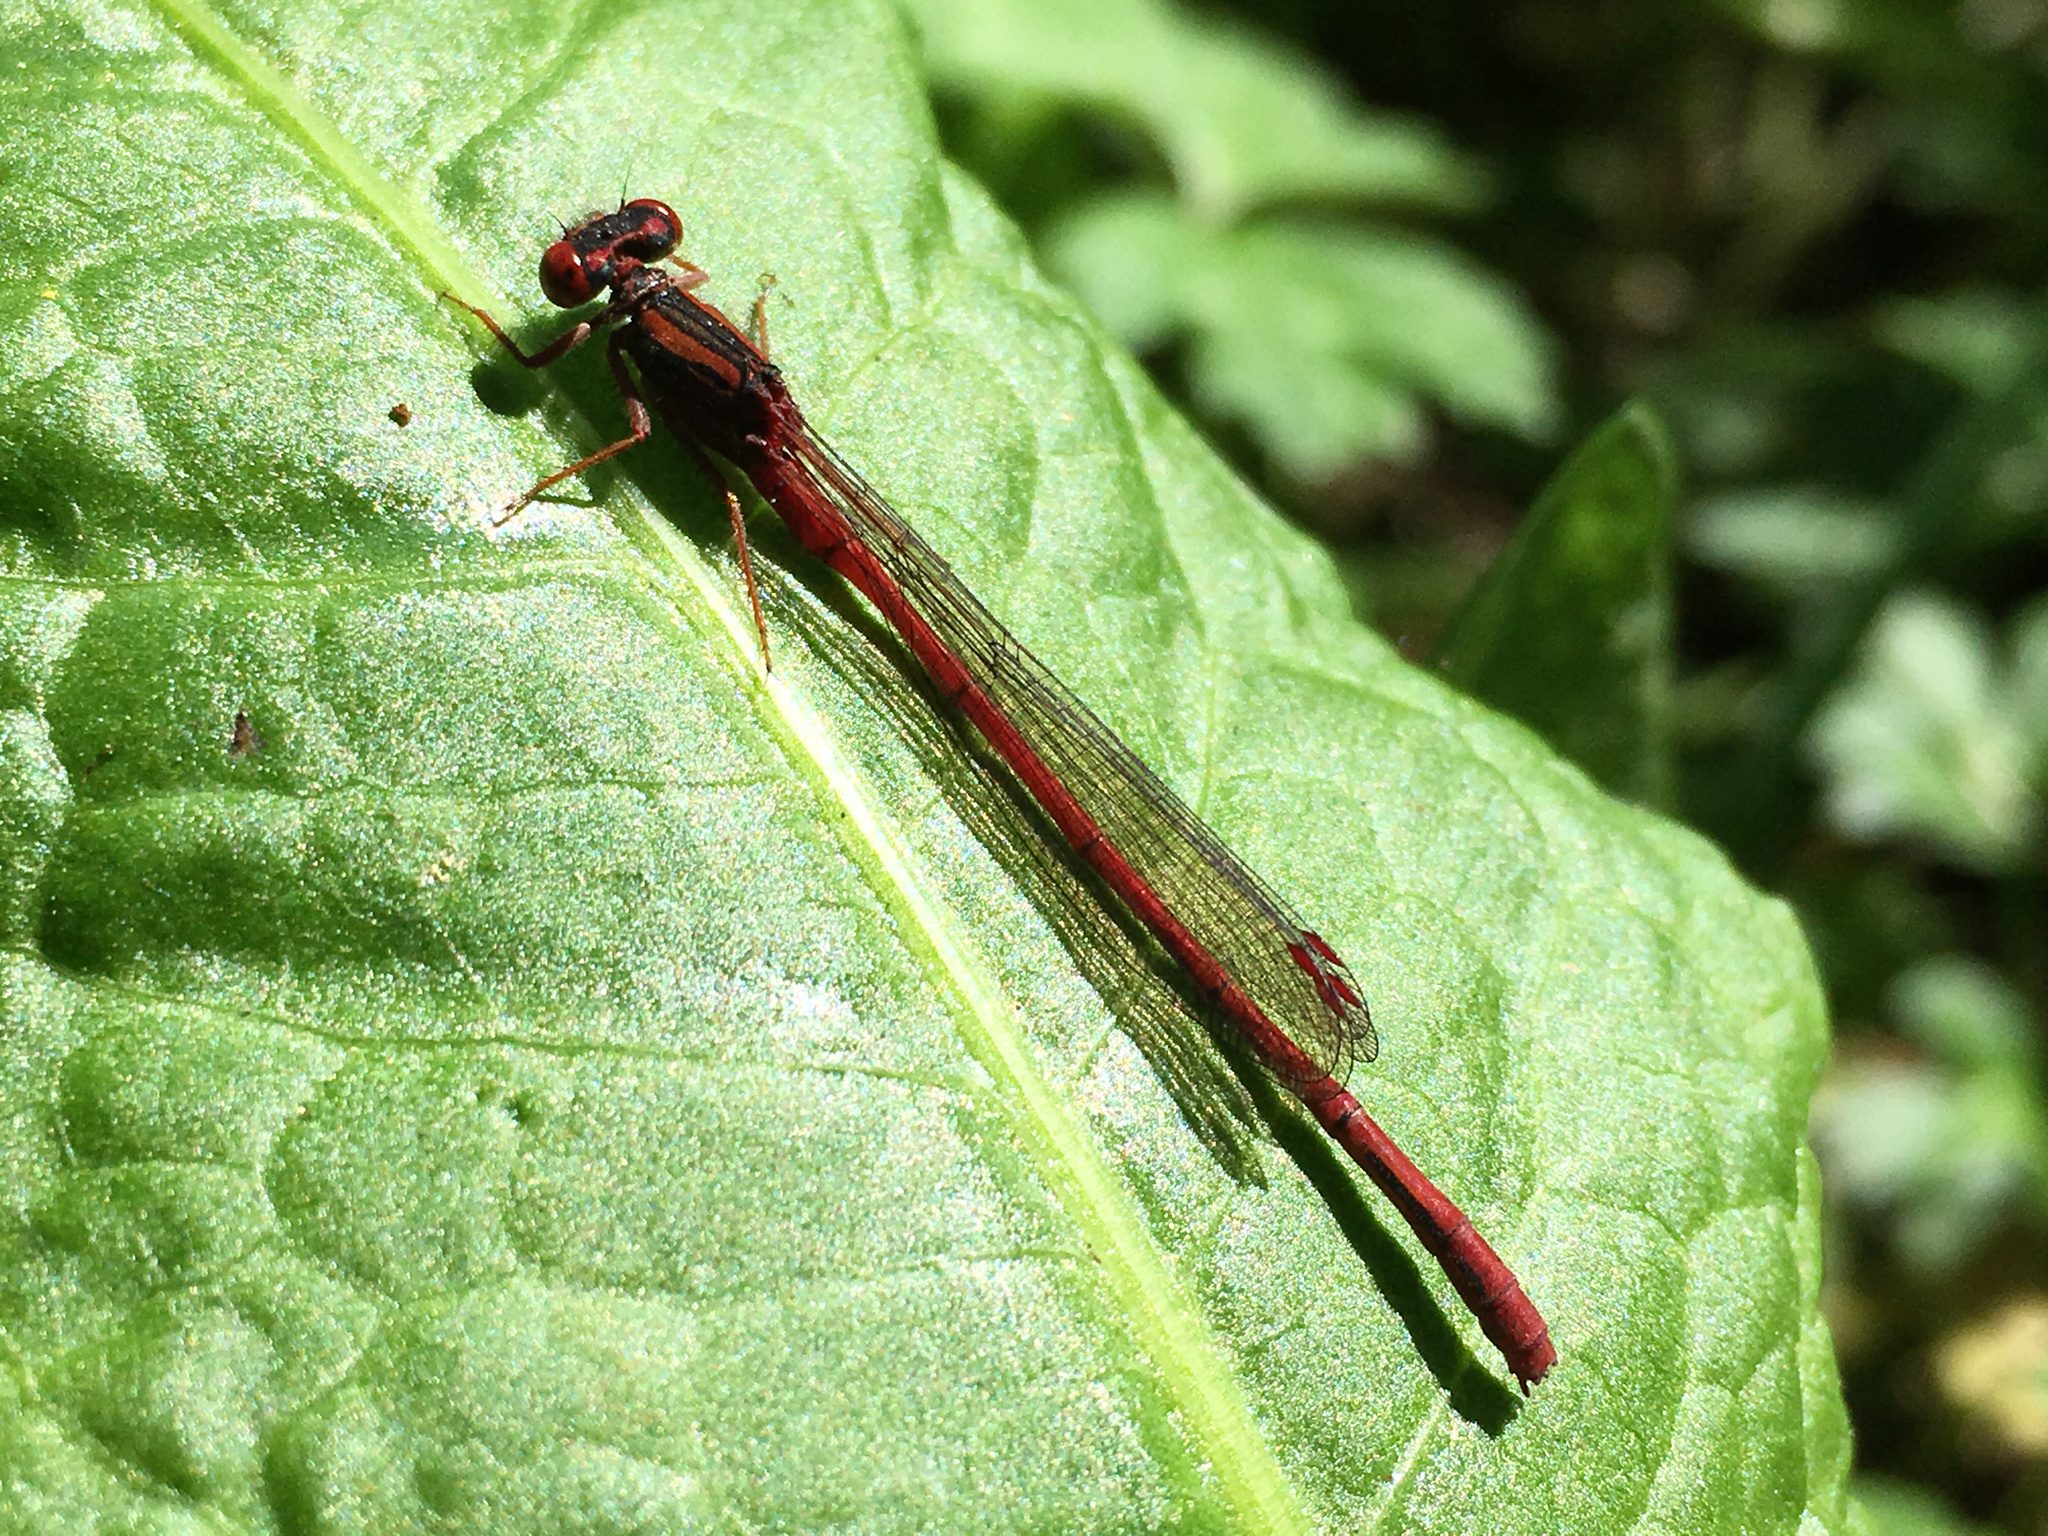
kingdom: Animalia
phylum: Arthropoda
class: Insecta
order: Odonata
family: Coenagrionidae
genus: Xanthocnemis
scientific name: Xanthocnemis zealandica
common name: Common redcoat damselfly
